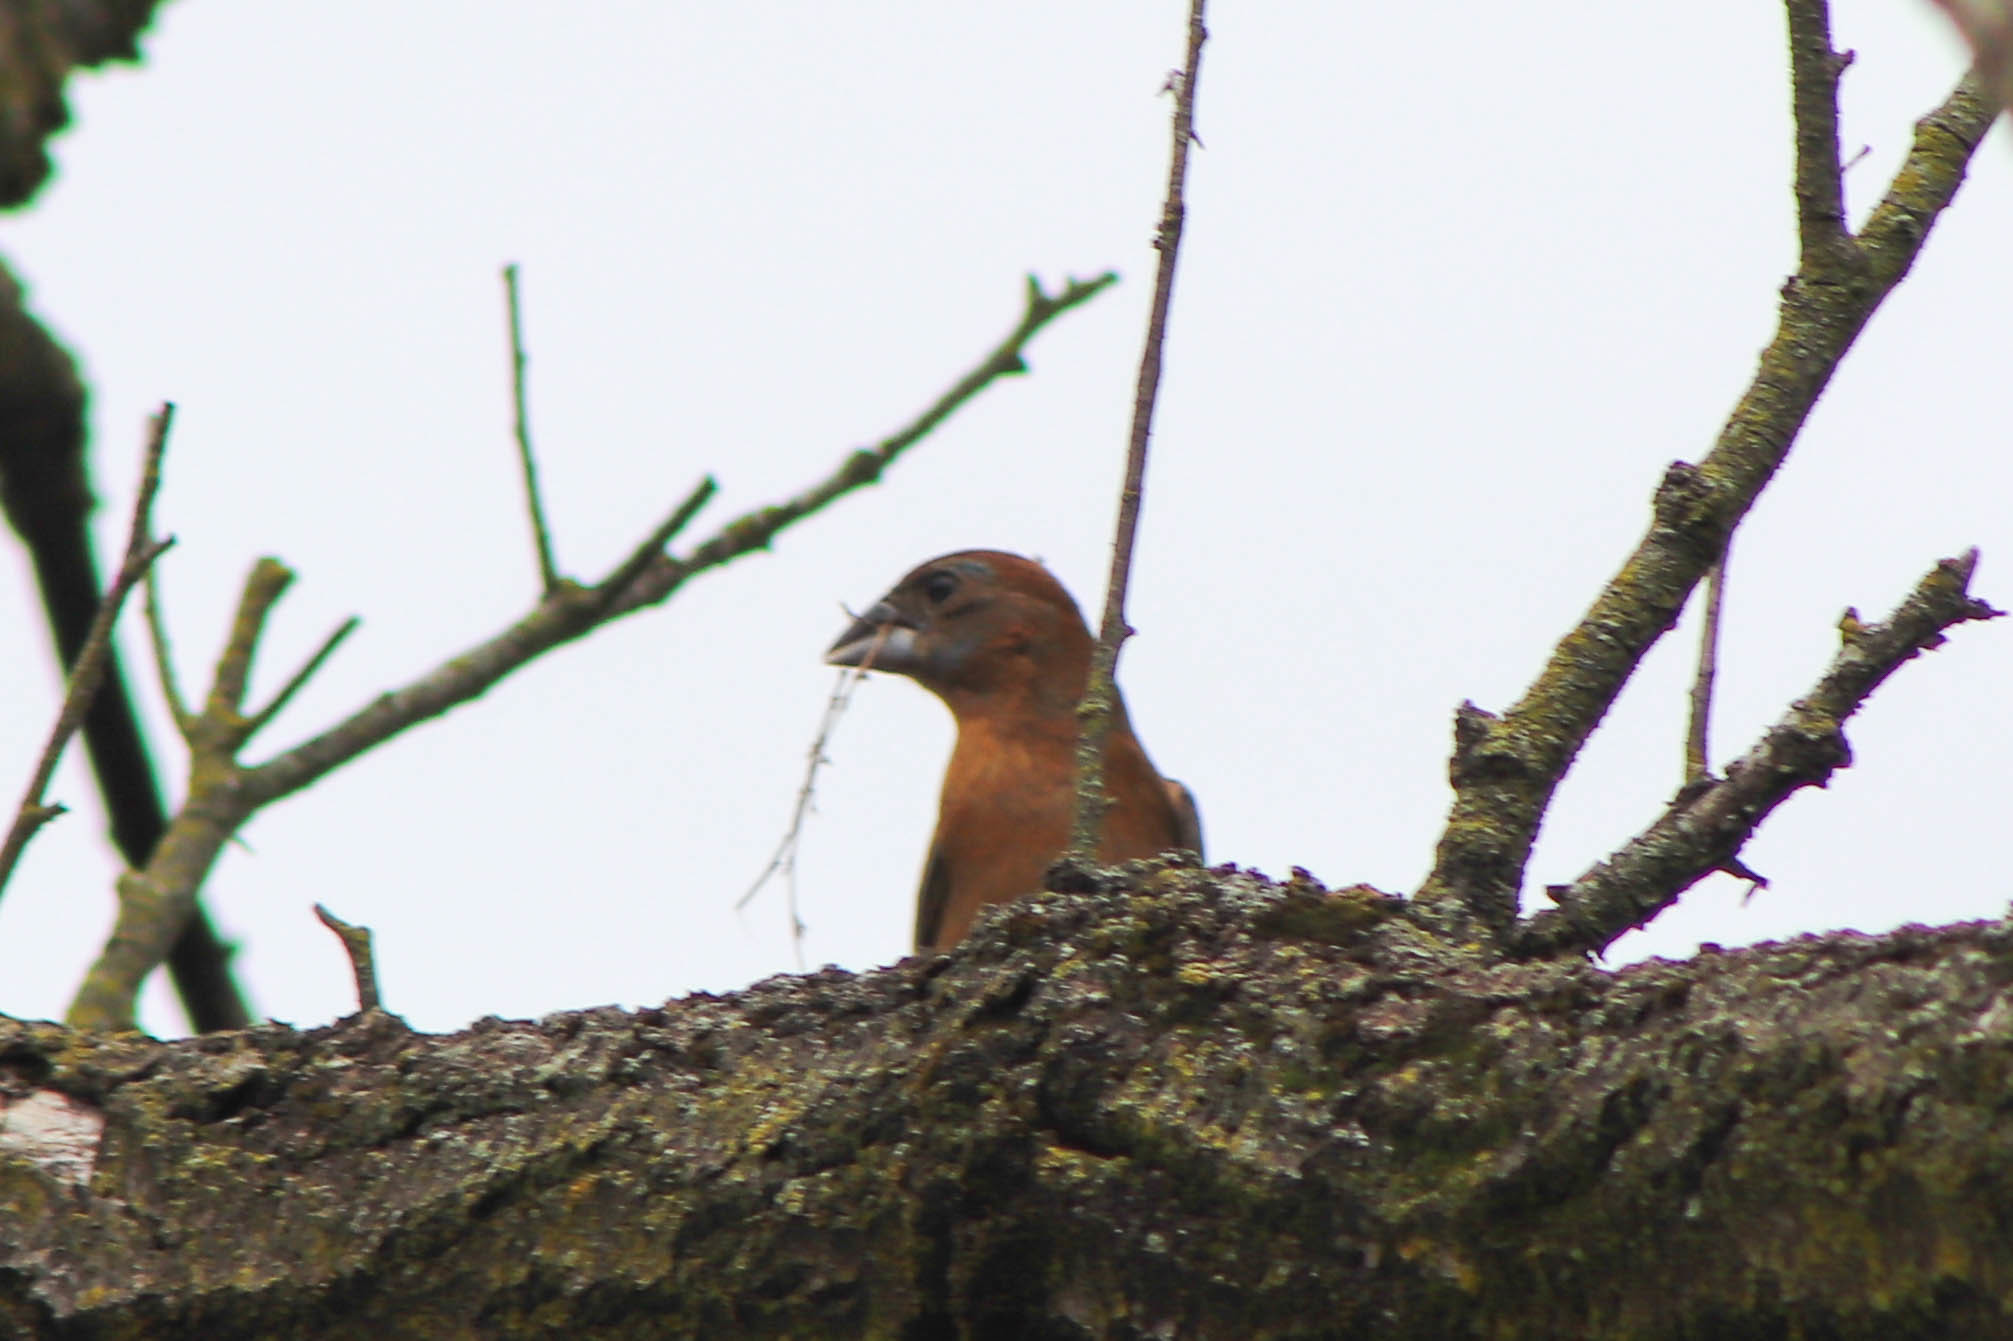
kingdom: Animalia
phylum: Chordata
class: Aves
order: Passeriformes
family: Cardinalidae
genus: Passerina
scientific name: Passerina caerulea
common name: Blue grosbeak
